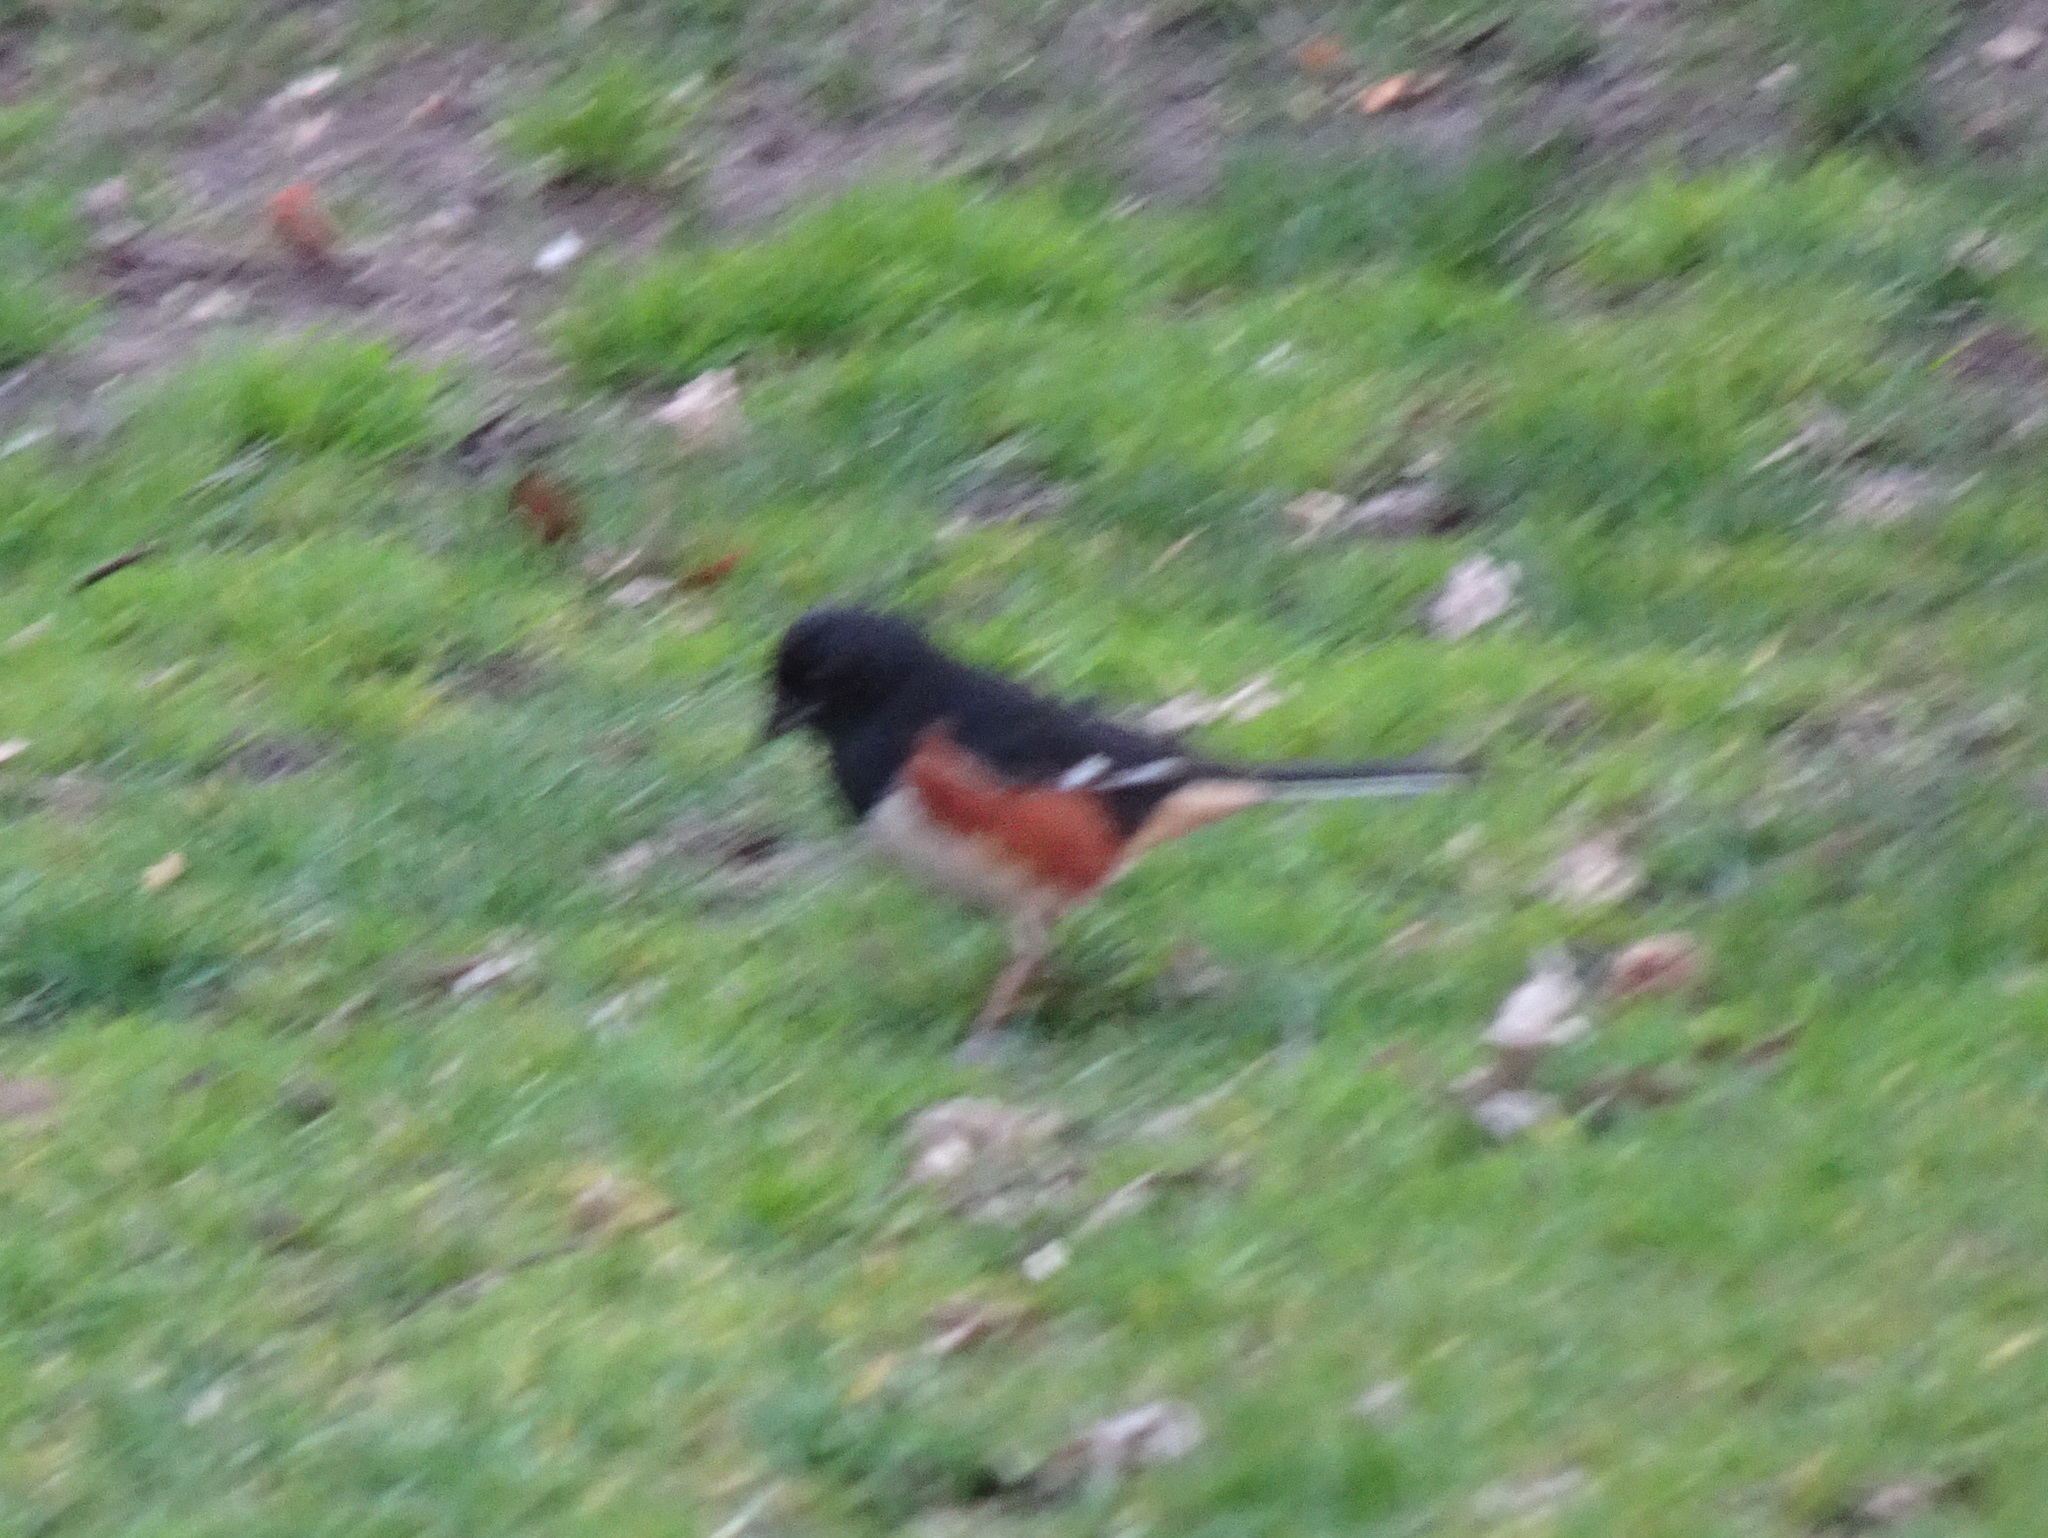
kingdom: Animalia
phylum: Chordata
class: Aves
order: Passeriformes
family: Passerellidae
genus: Pipilo
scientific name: Pipilo erythrophthalmus
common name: Eastern towhee
